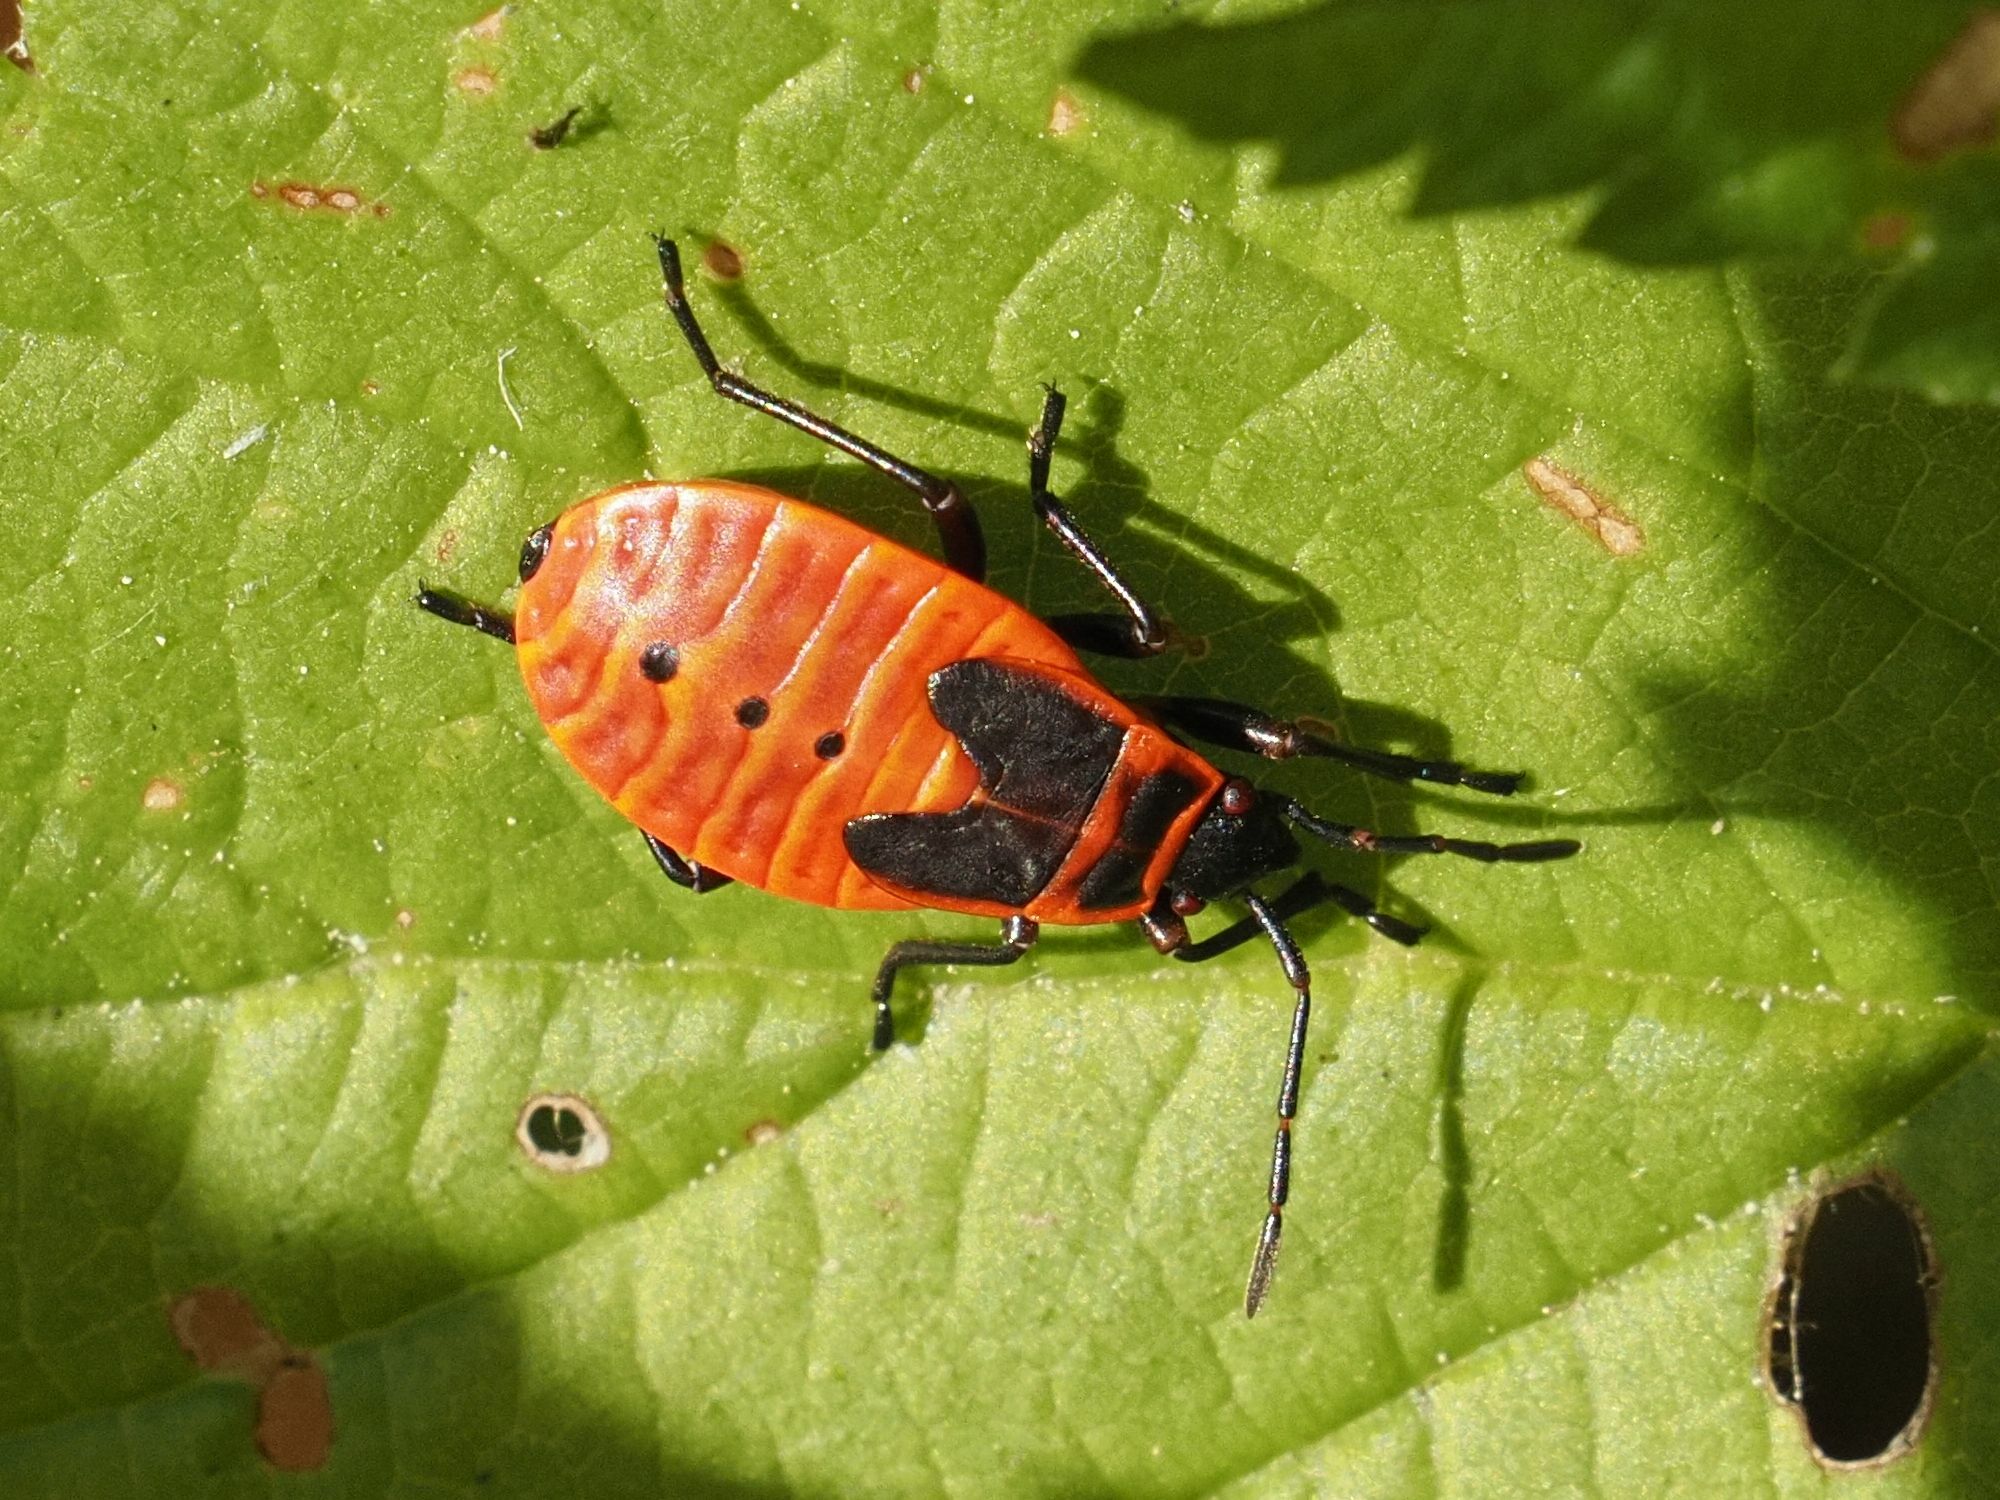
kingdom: Animalia
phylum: Arthropoda
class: Insecta
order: Hemiptera
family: Pyrrhocoridae
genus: Pyrrhocoris
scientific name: Pyrrhocoris apterus
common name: Firebug
